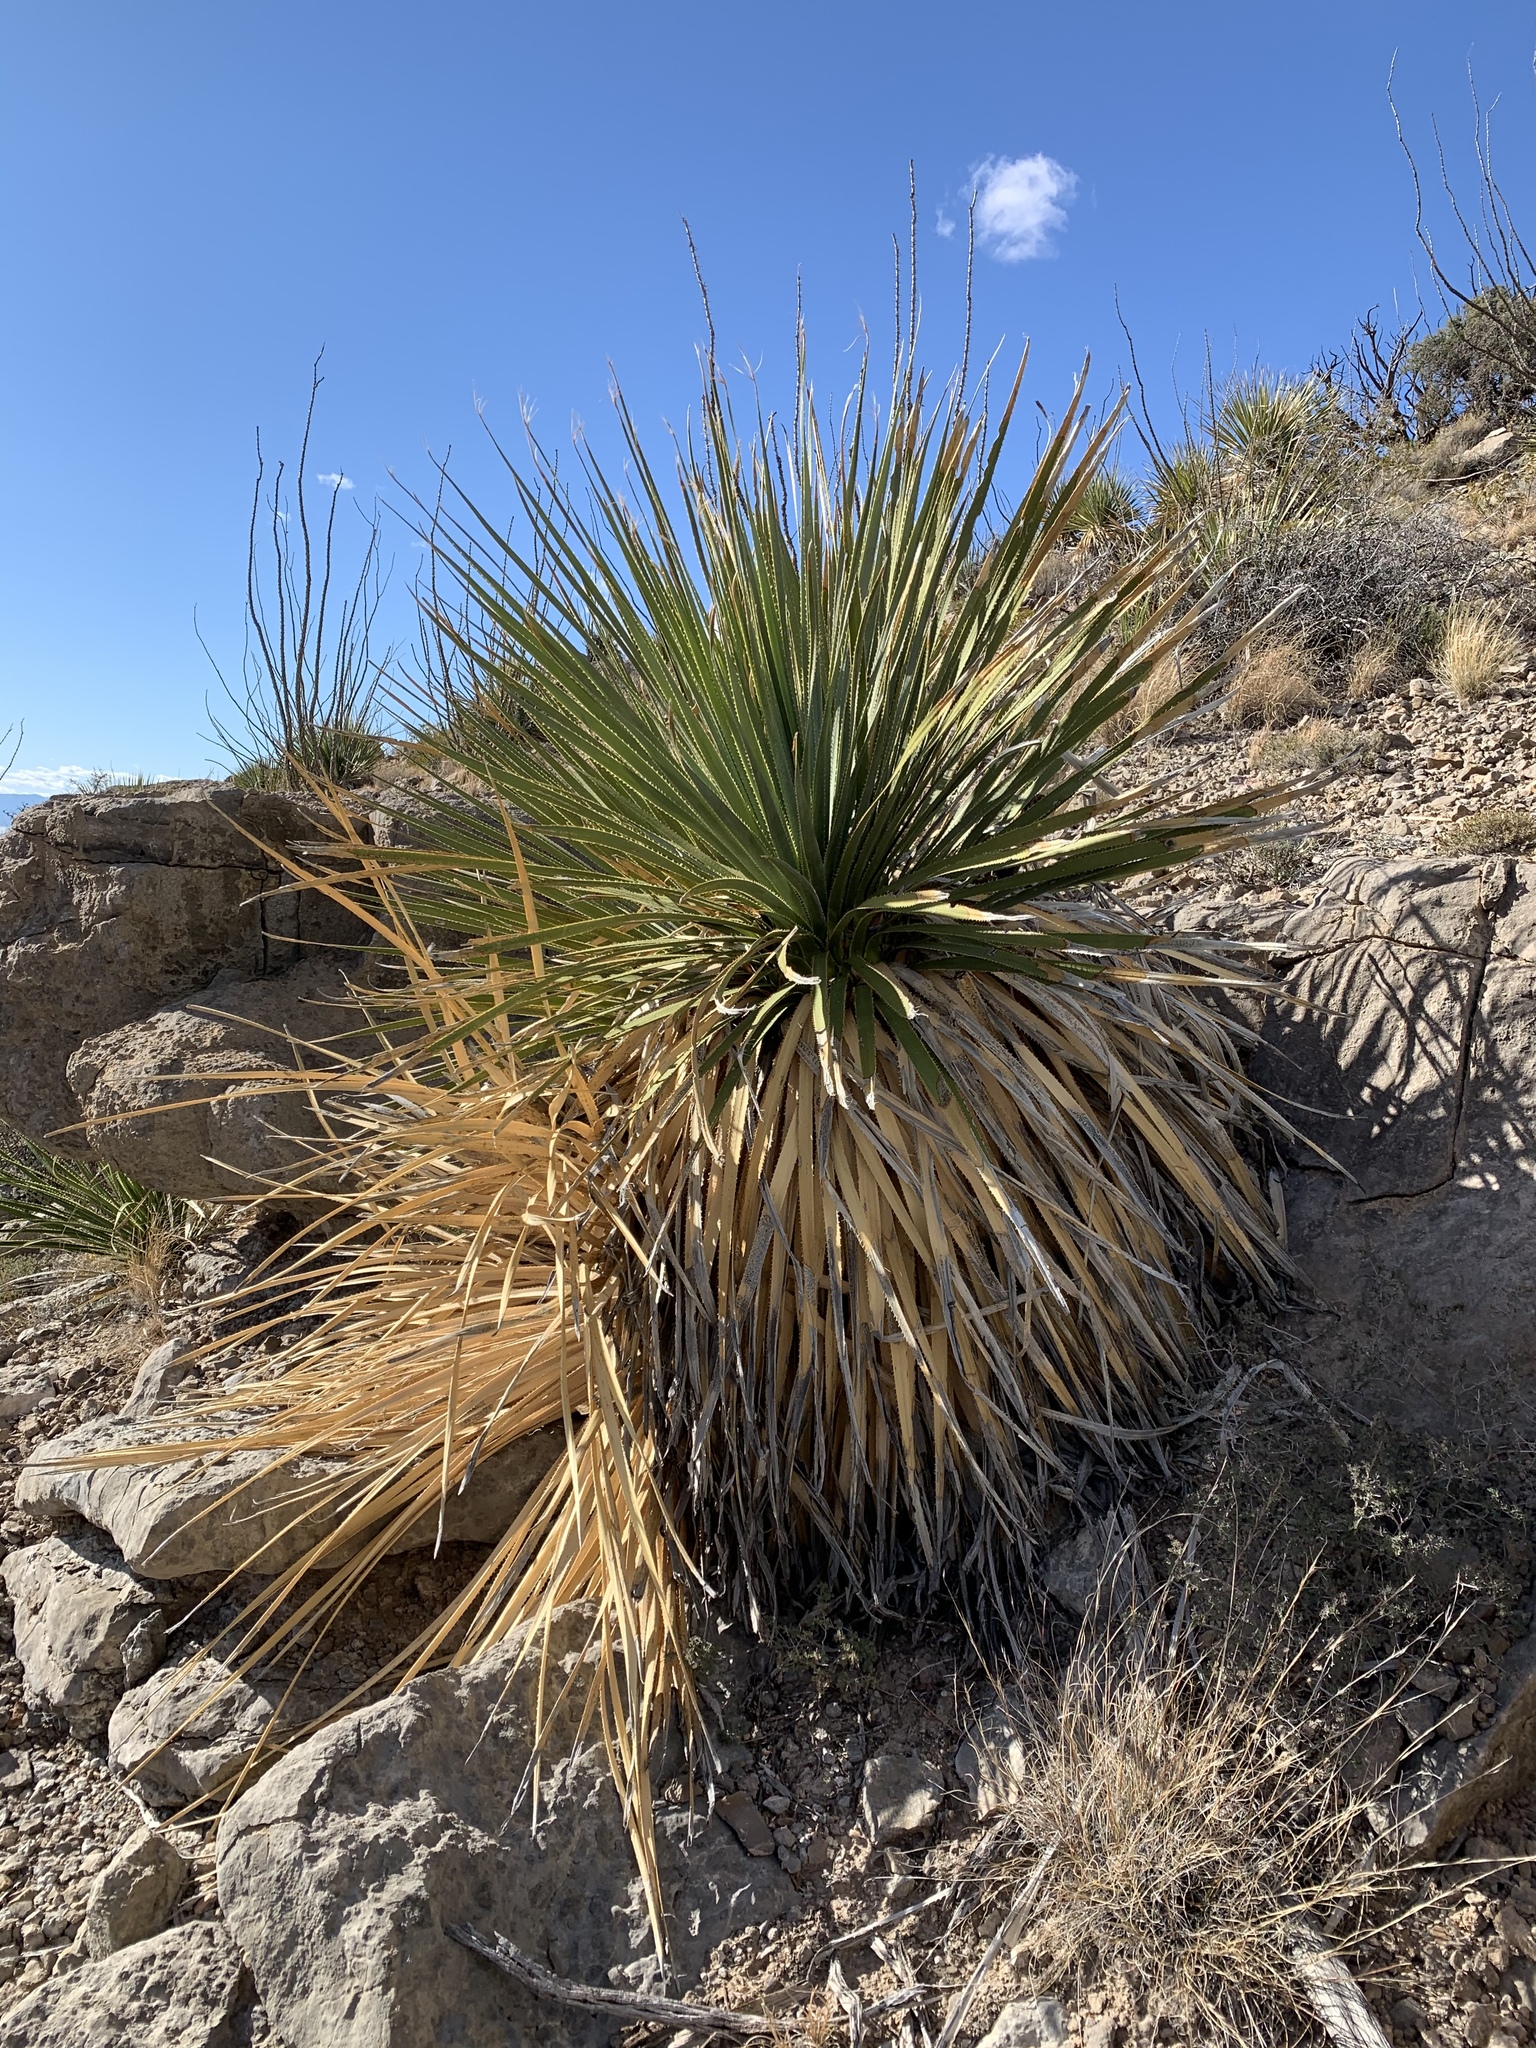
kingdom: Plantae
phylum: Tracheophyta
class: Liliopsida
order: Asparagales
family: Asparagaceae
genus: Dasylirion
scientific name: Dasylirion wheeleri
